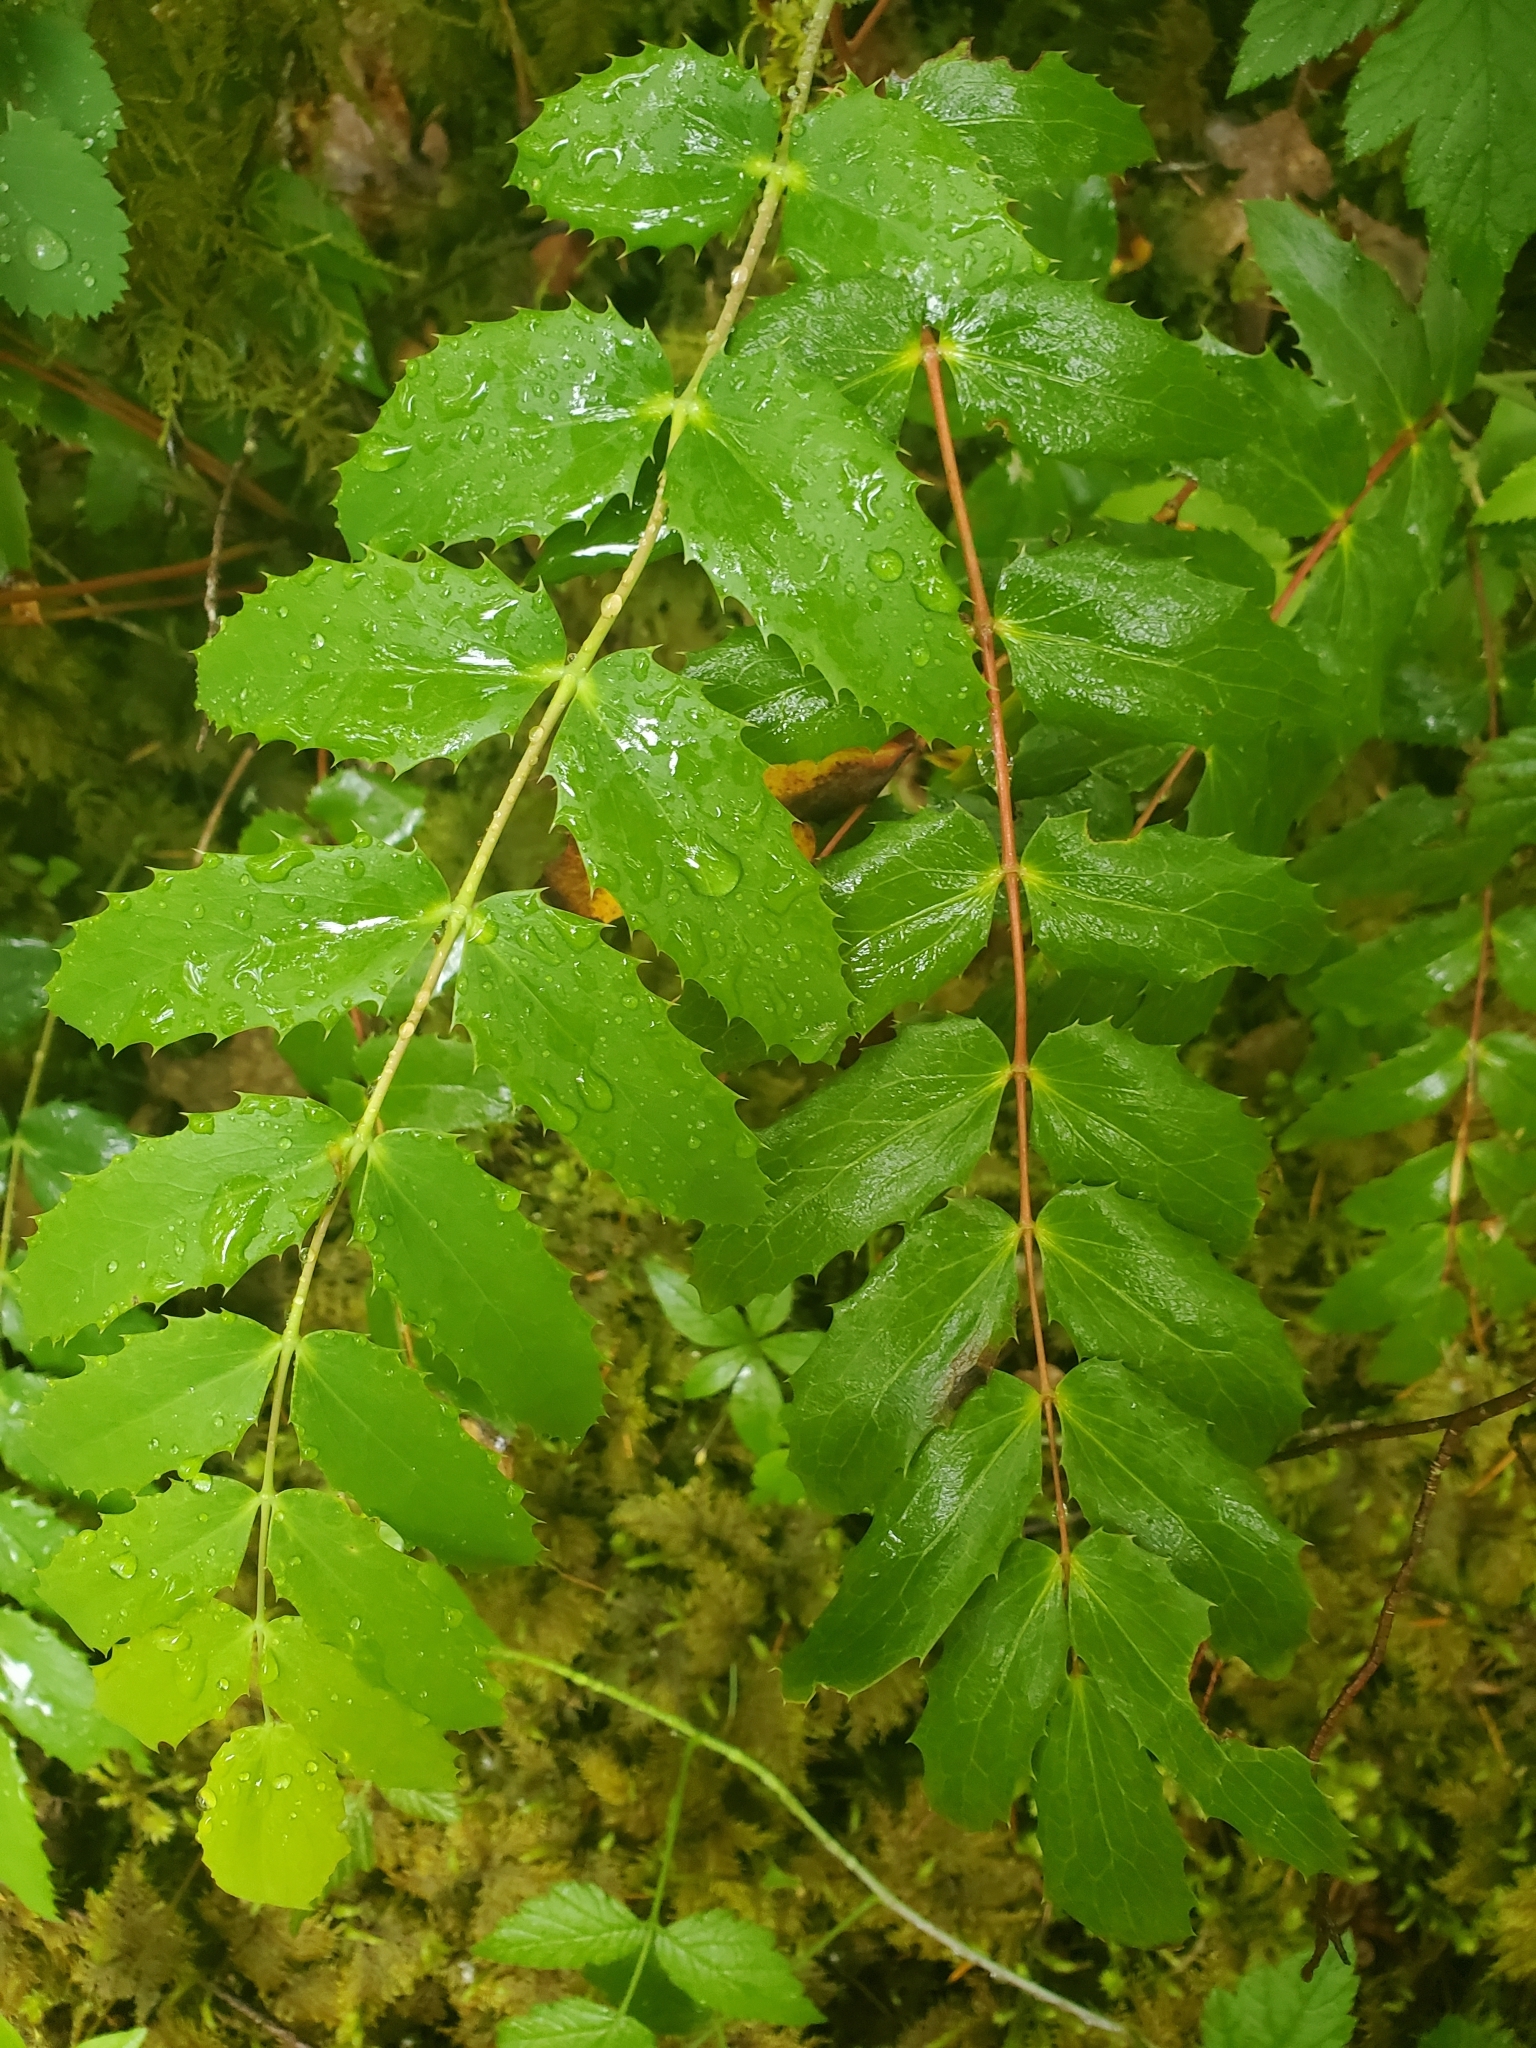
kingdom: Plantae
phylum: Tracheophyta
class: Magnoliopsida
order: Ranunculales
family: Berberidaceae
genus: Mahonia
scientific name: Mahonia nervosa
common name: Cascade oregon-grape
